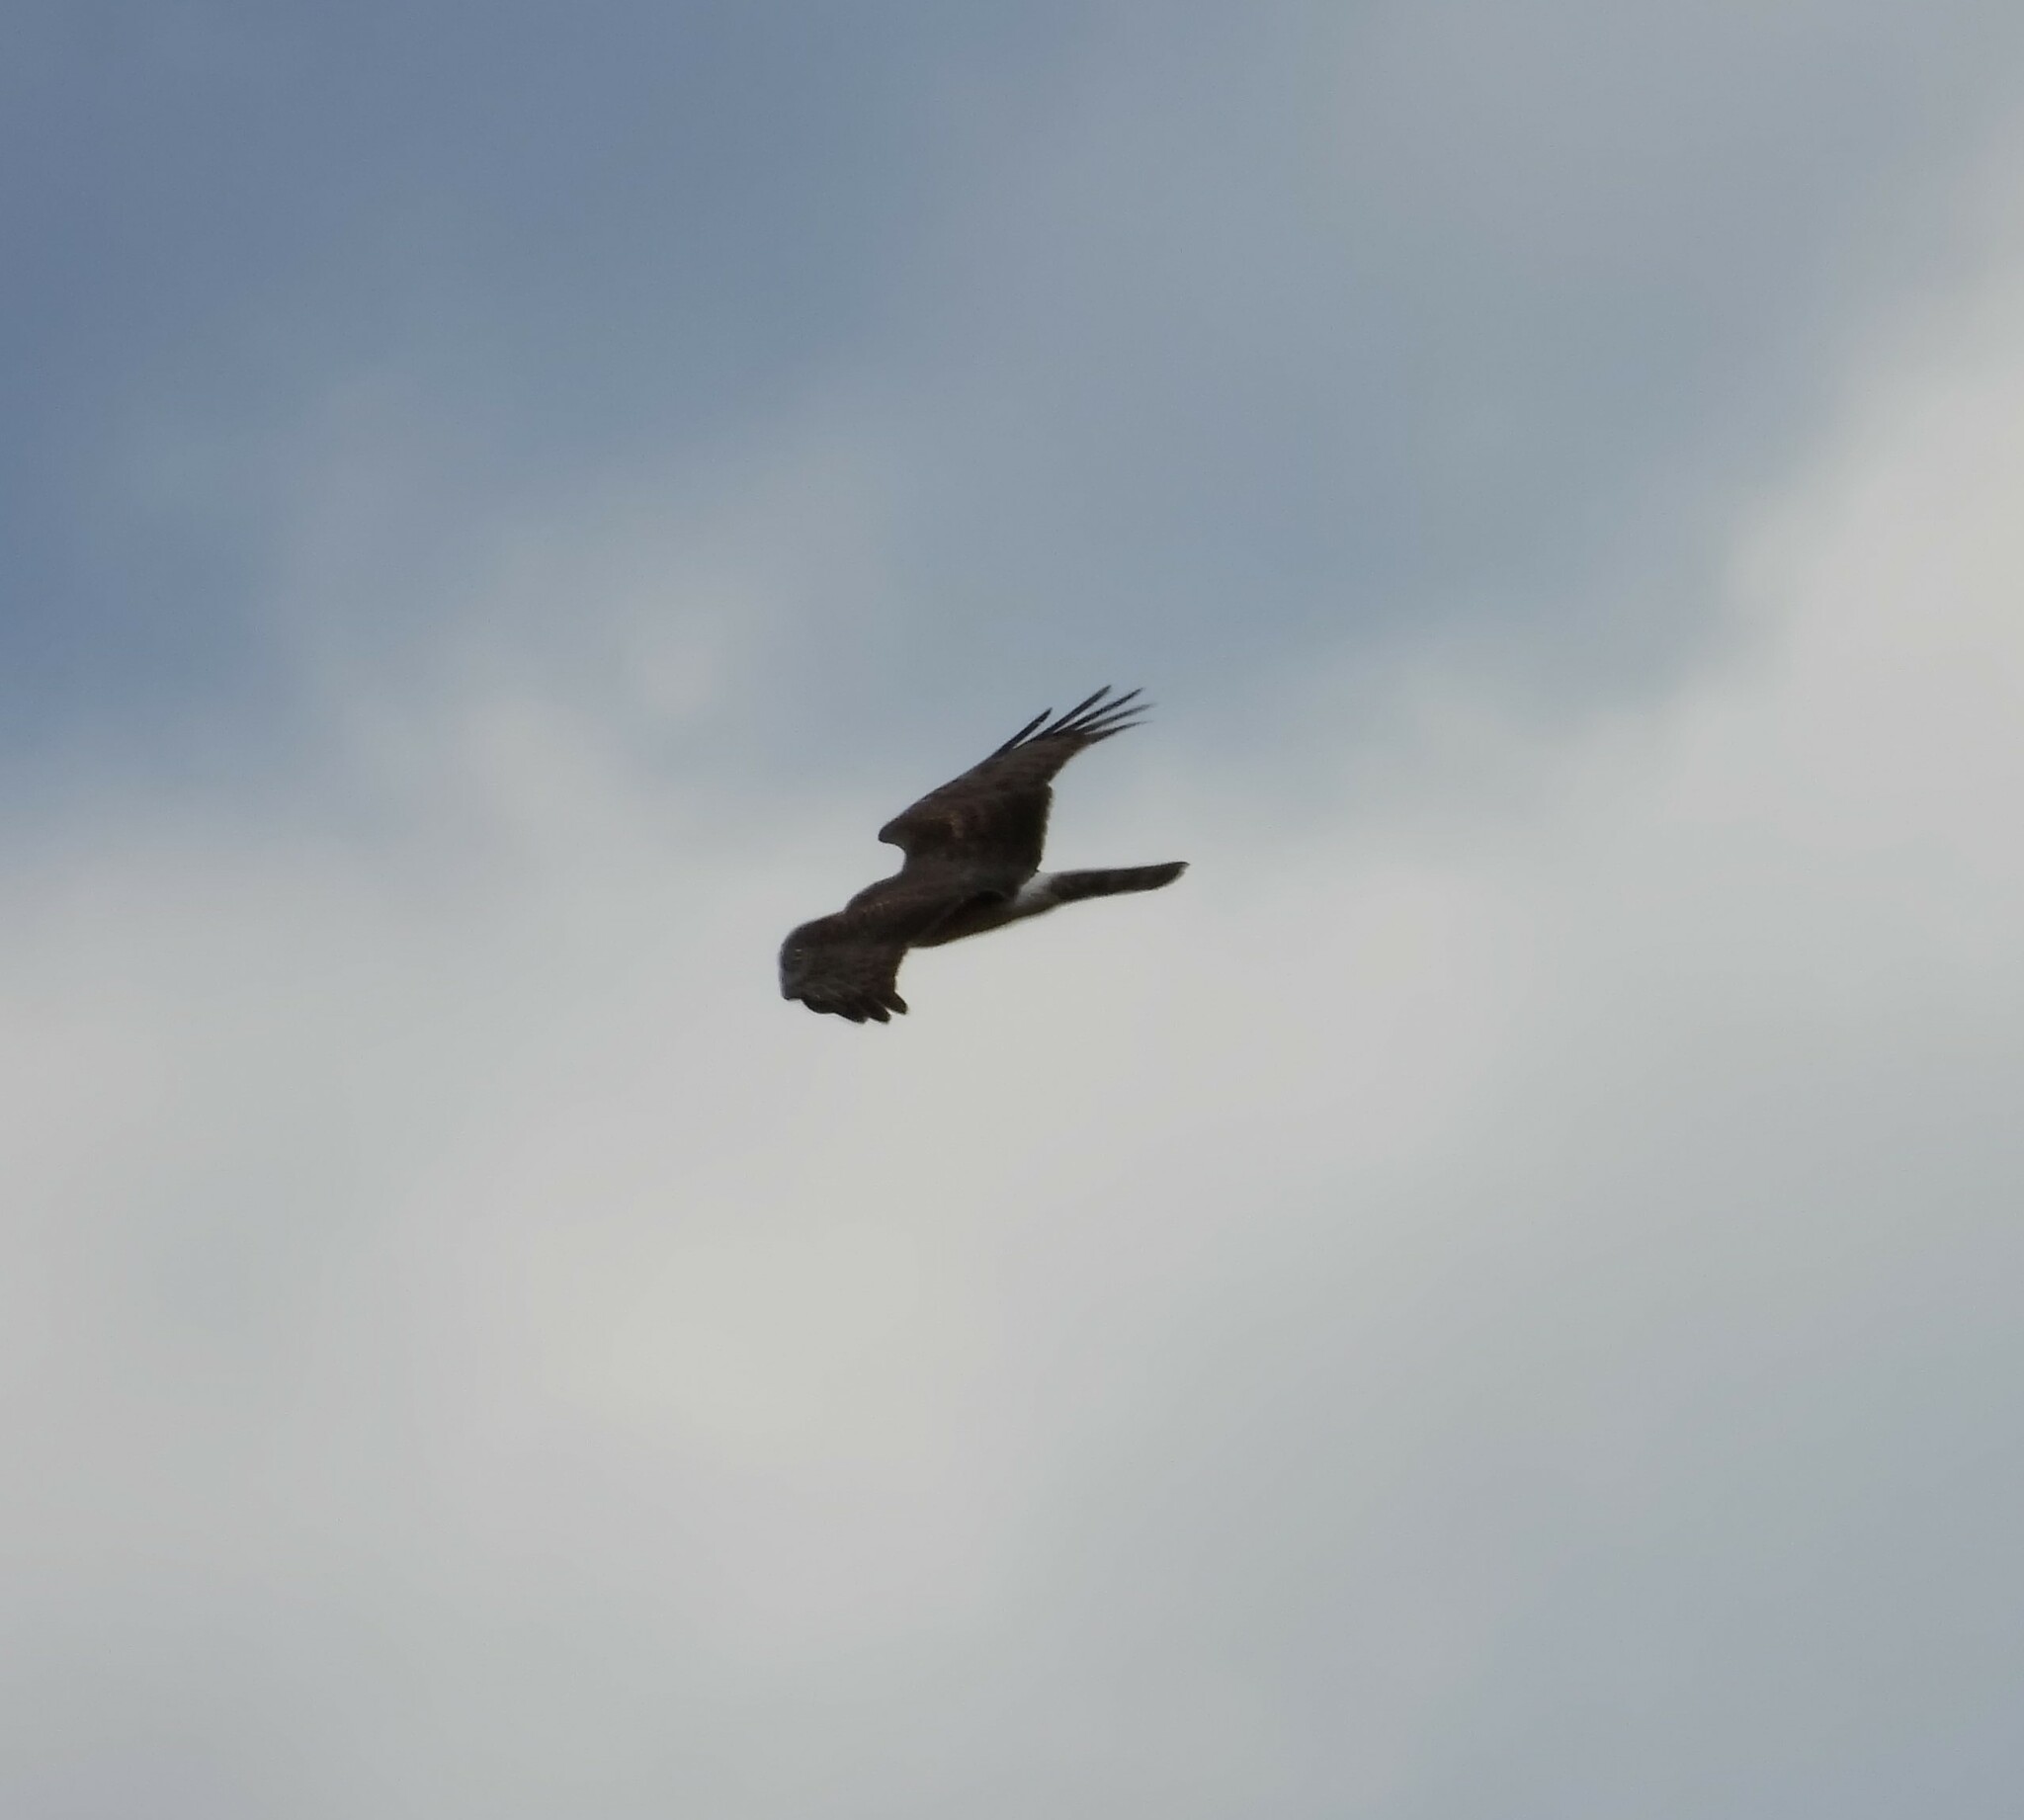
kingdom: Animalia
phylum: Chordata
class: Aves
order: Accipitriformes
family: Accipitridae
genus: Circus
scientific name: Circus cyaneus
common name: Hen harrier
